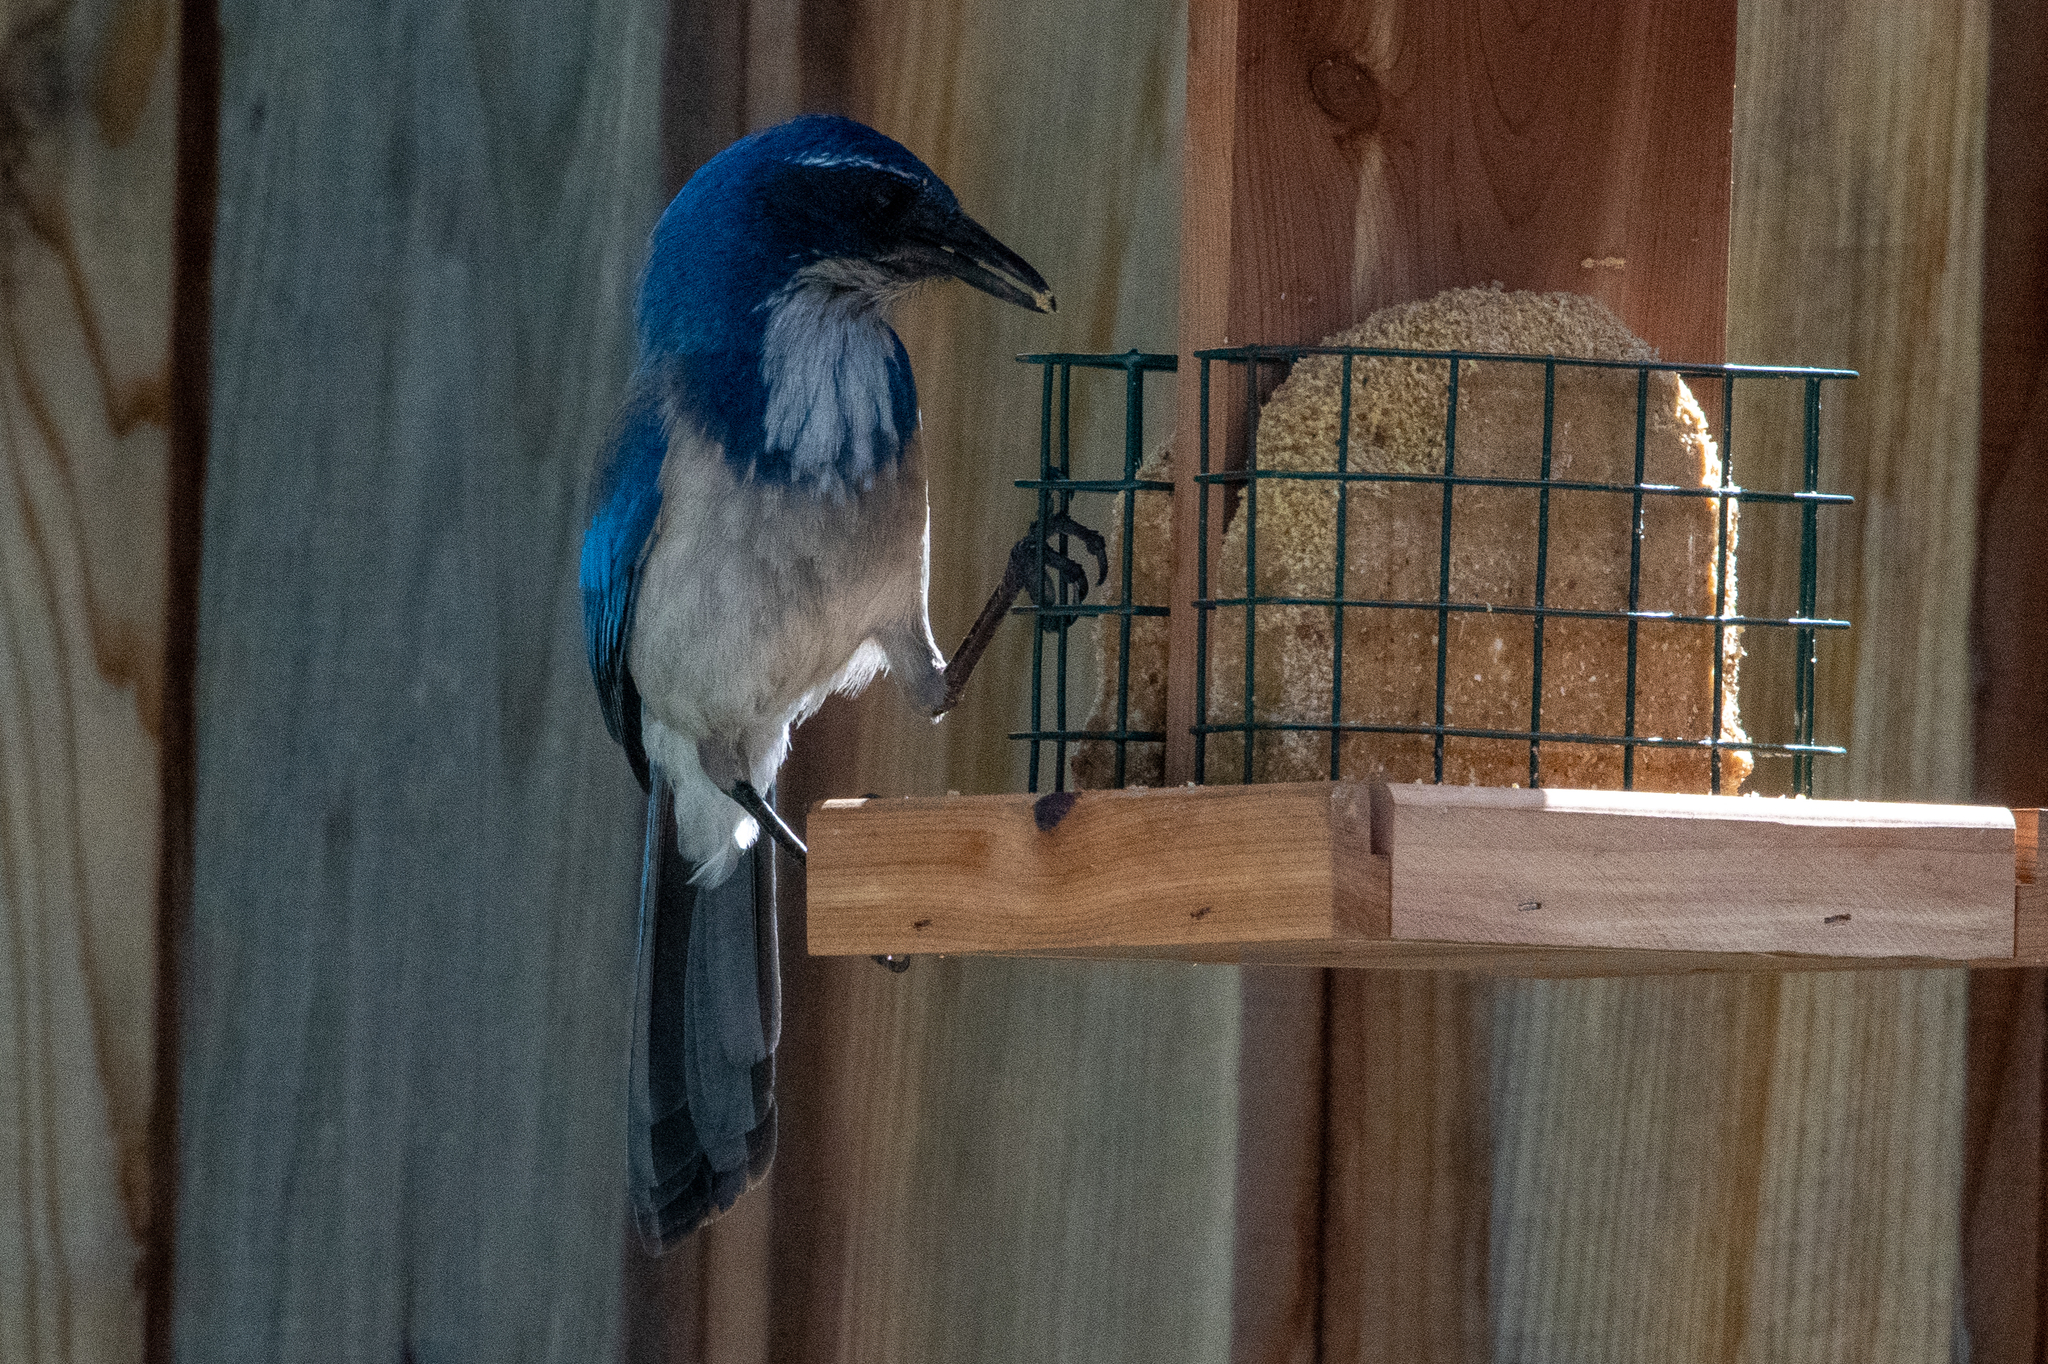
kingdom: Animalia
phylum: Chordata
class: Aves
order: Passeriformes
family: Corvidae
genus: Aphelocoma
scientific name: Aphelocoma californica
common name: California scrub-jay
